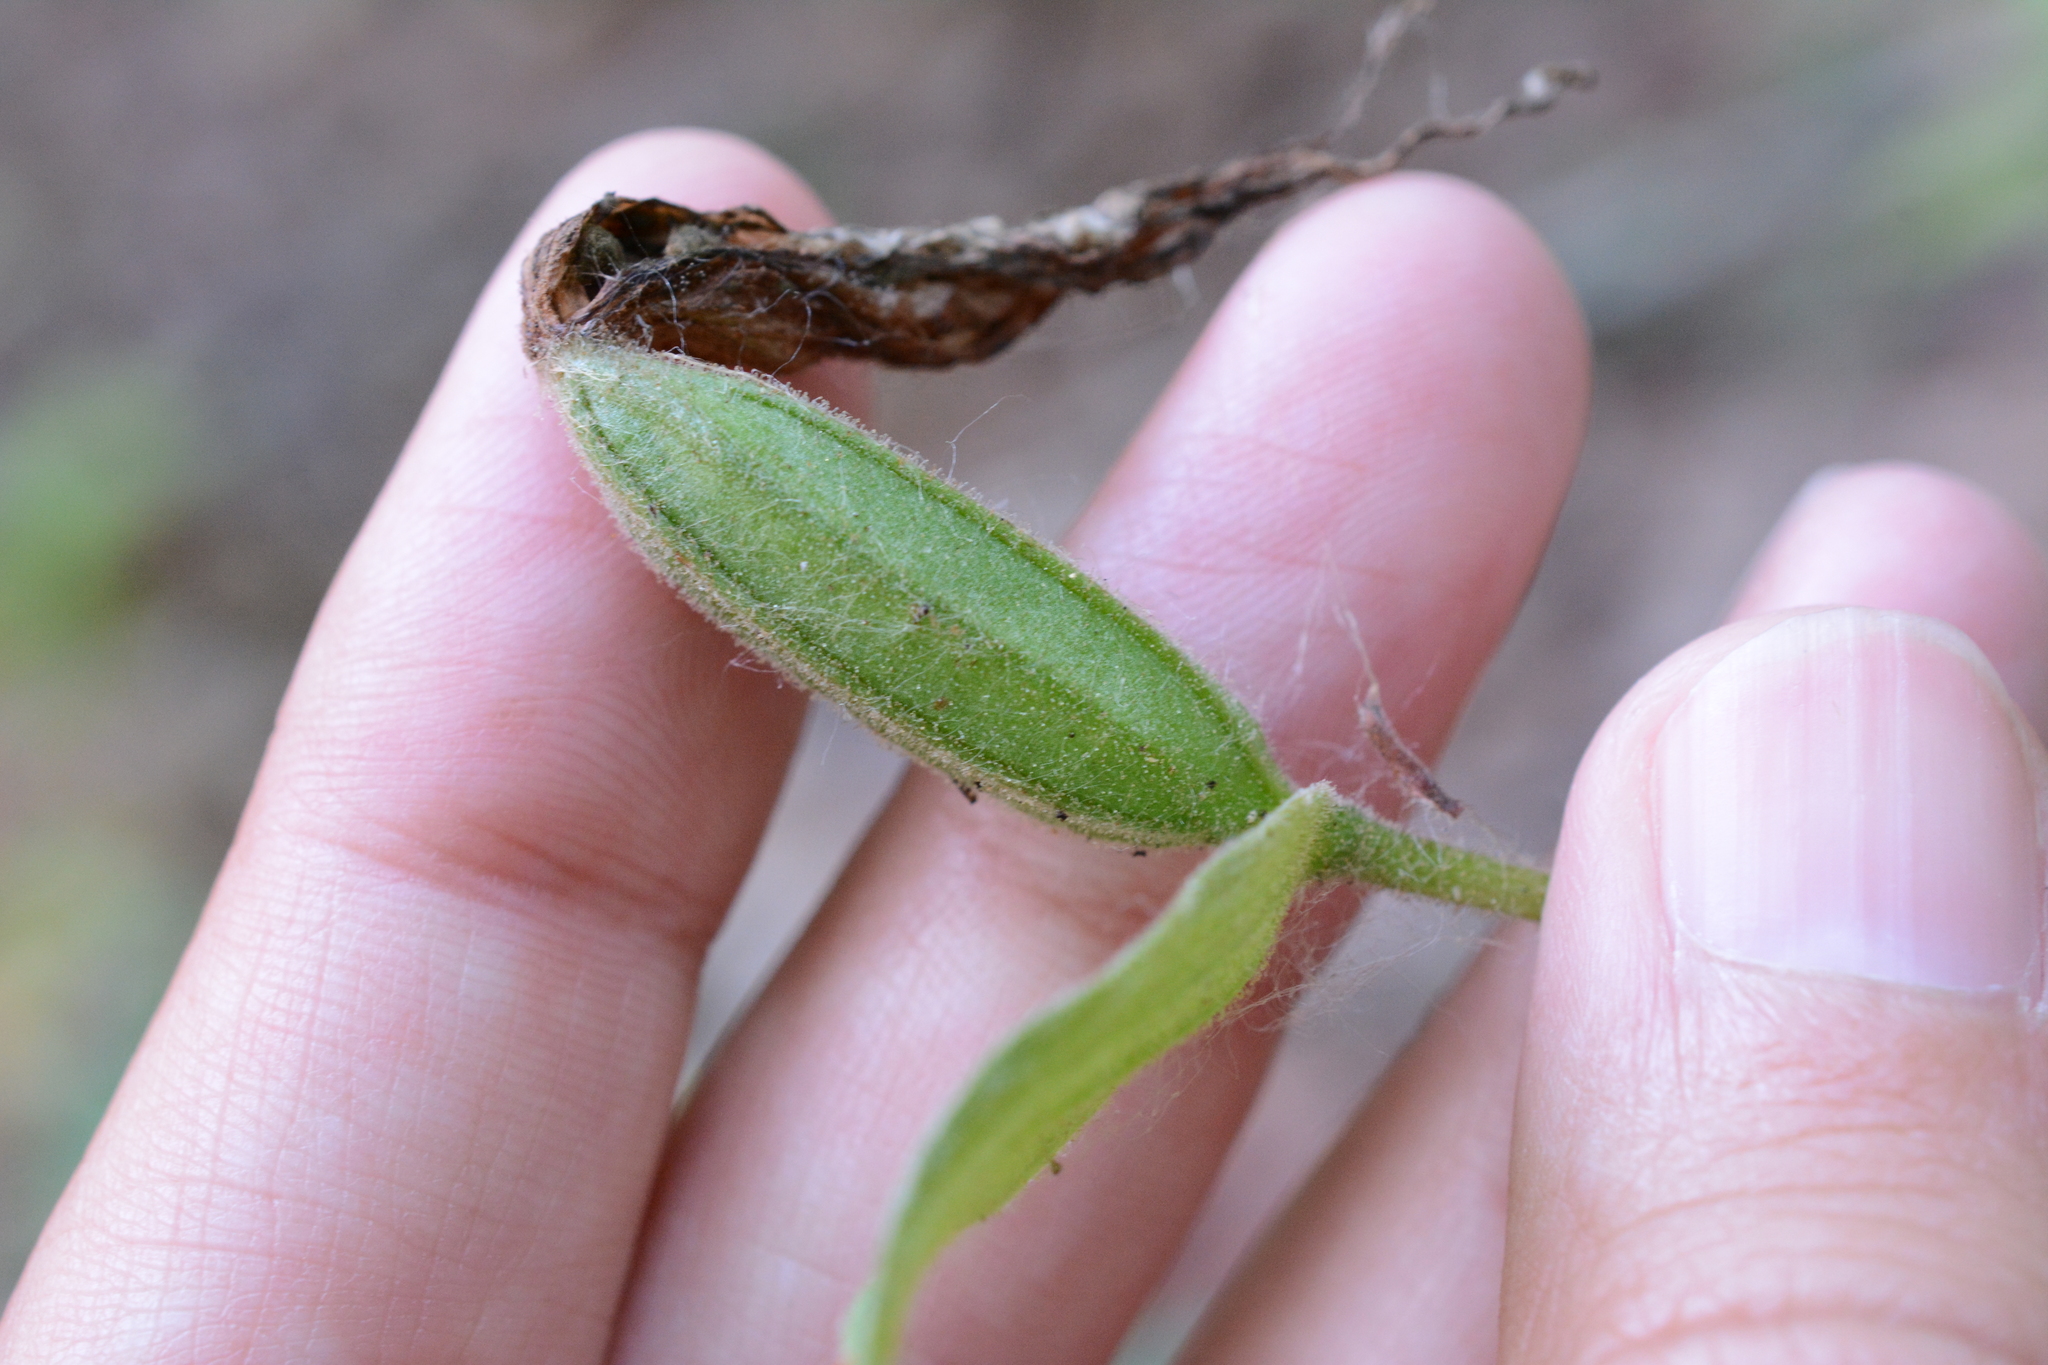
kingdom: Plantae
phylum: Tracheophyta
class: Liliopsida
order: Asparagales
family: Orchidaceae
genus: Cypripedium
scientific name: Cypripedium montanum
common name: Mountain lady's-slipper
